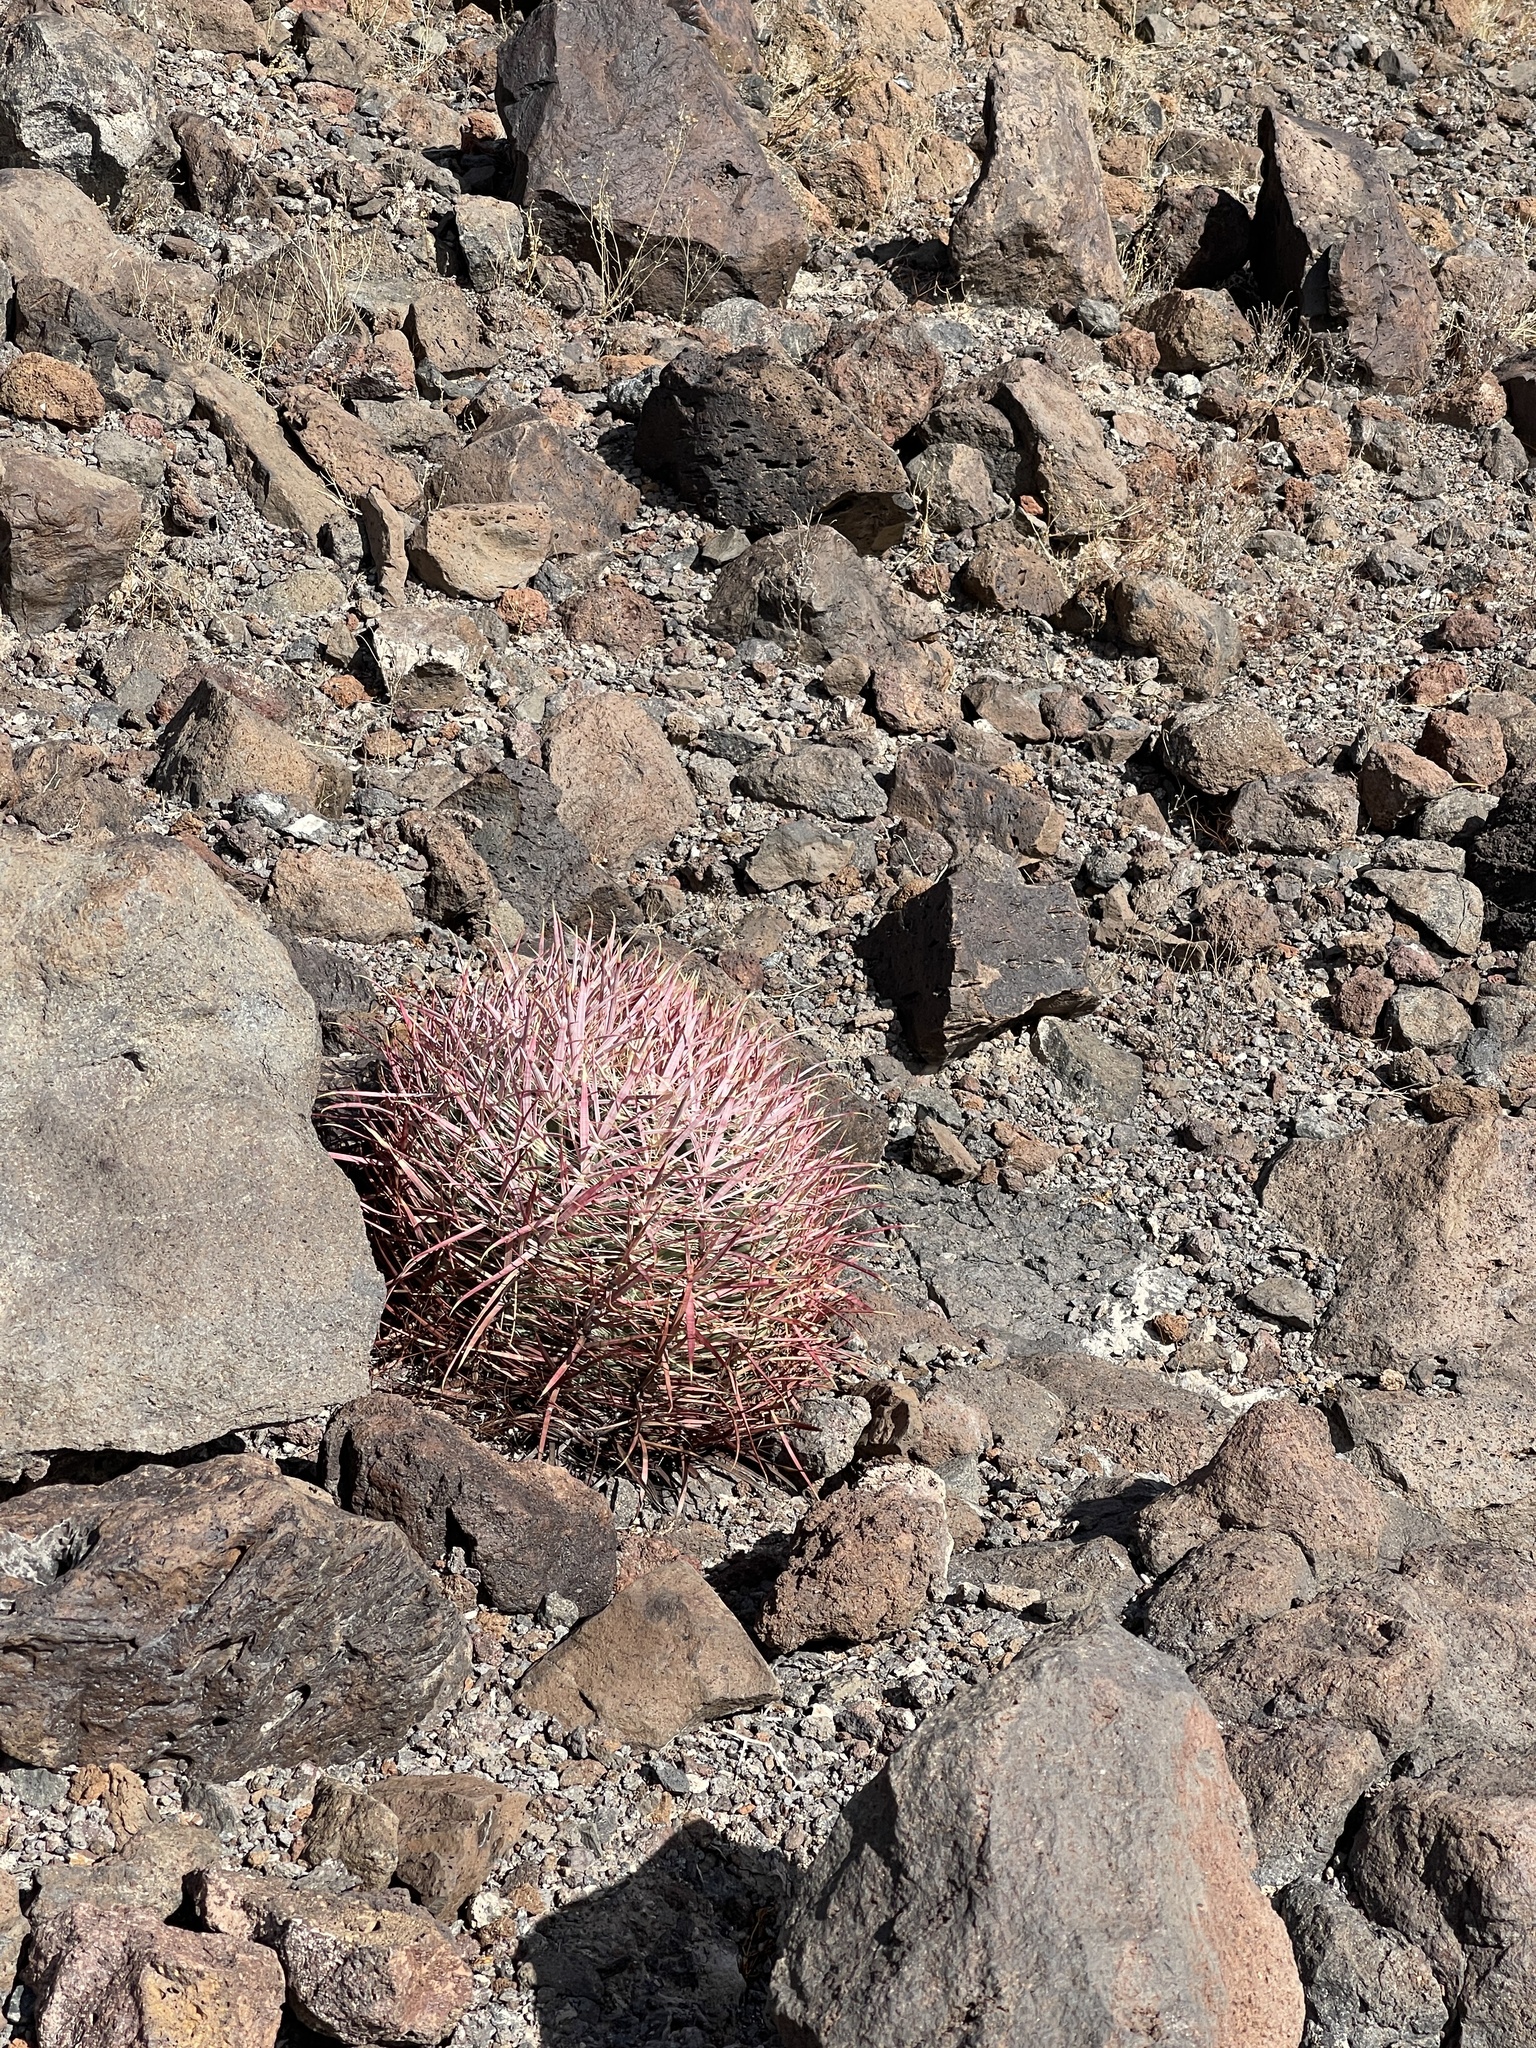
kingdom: Plantae
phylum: Tracheophyta
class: Magnoliopsida
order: Caryophyllales
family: Cactaceae
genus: Ferocactus
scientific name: Ferocactus cylindraceus
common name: California barrel cactus
